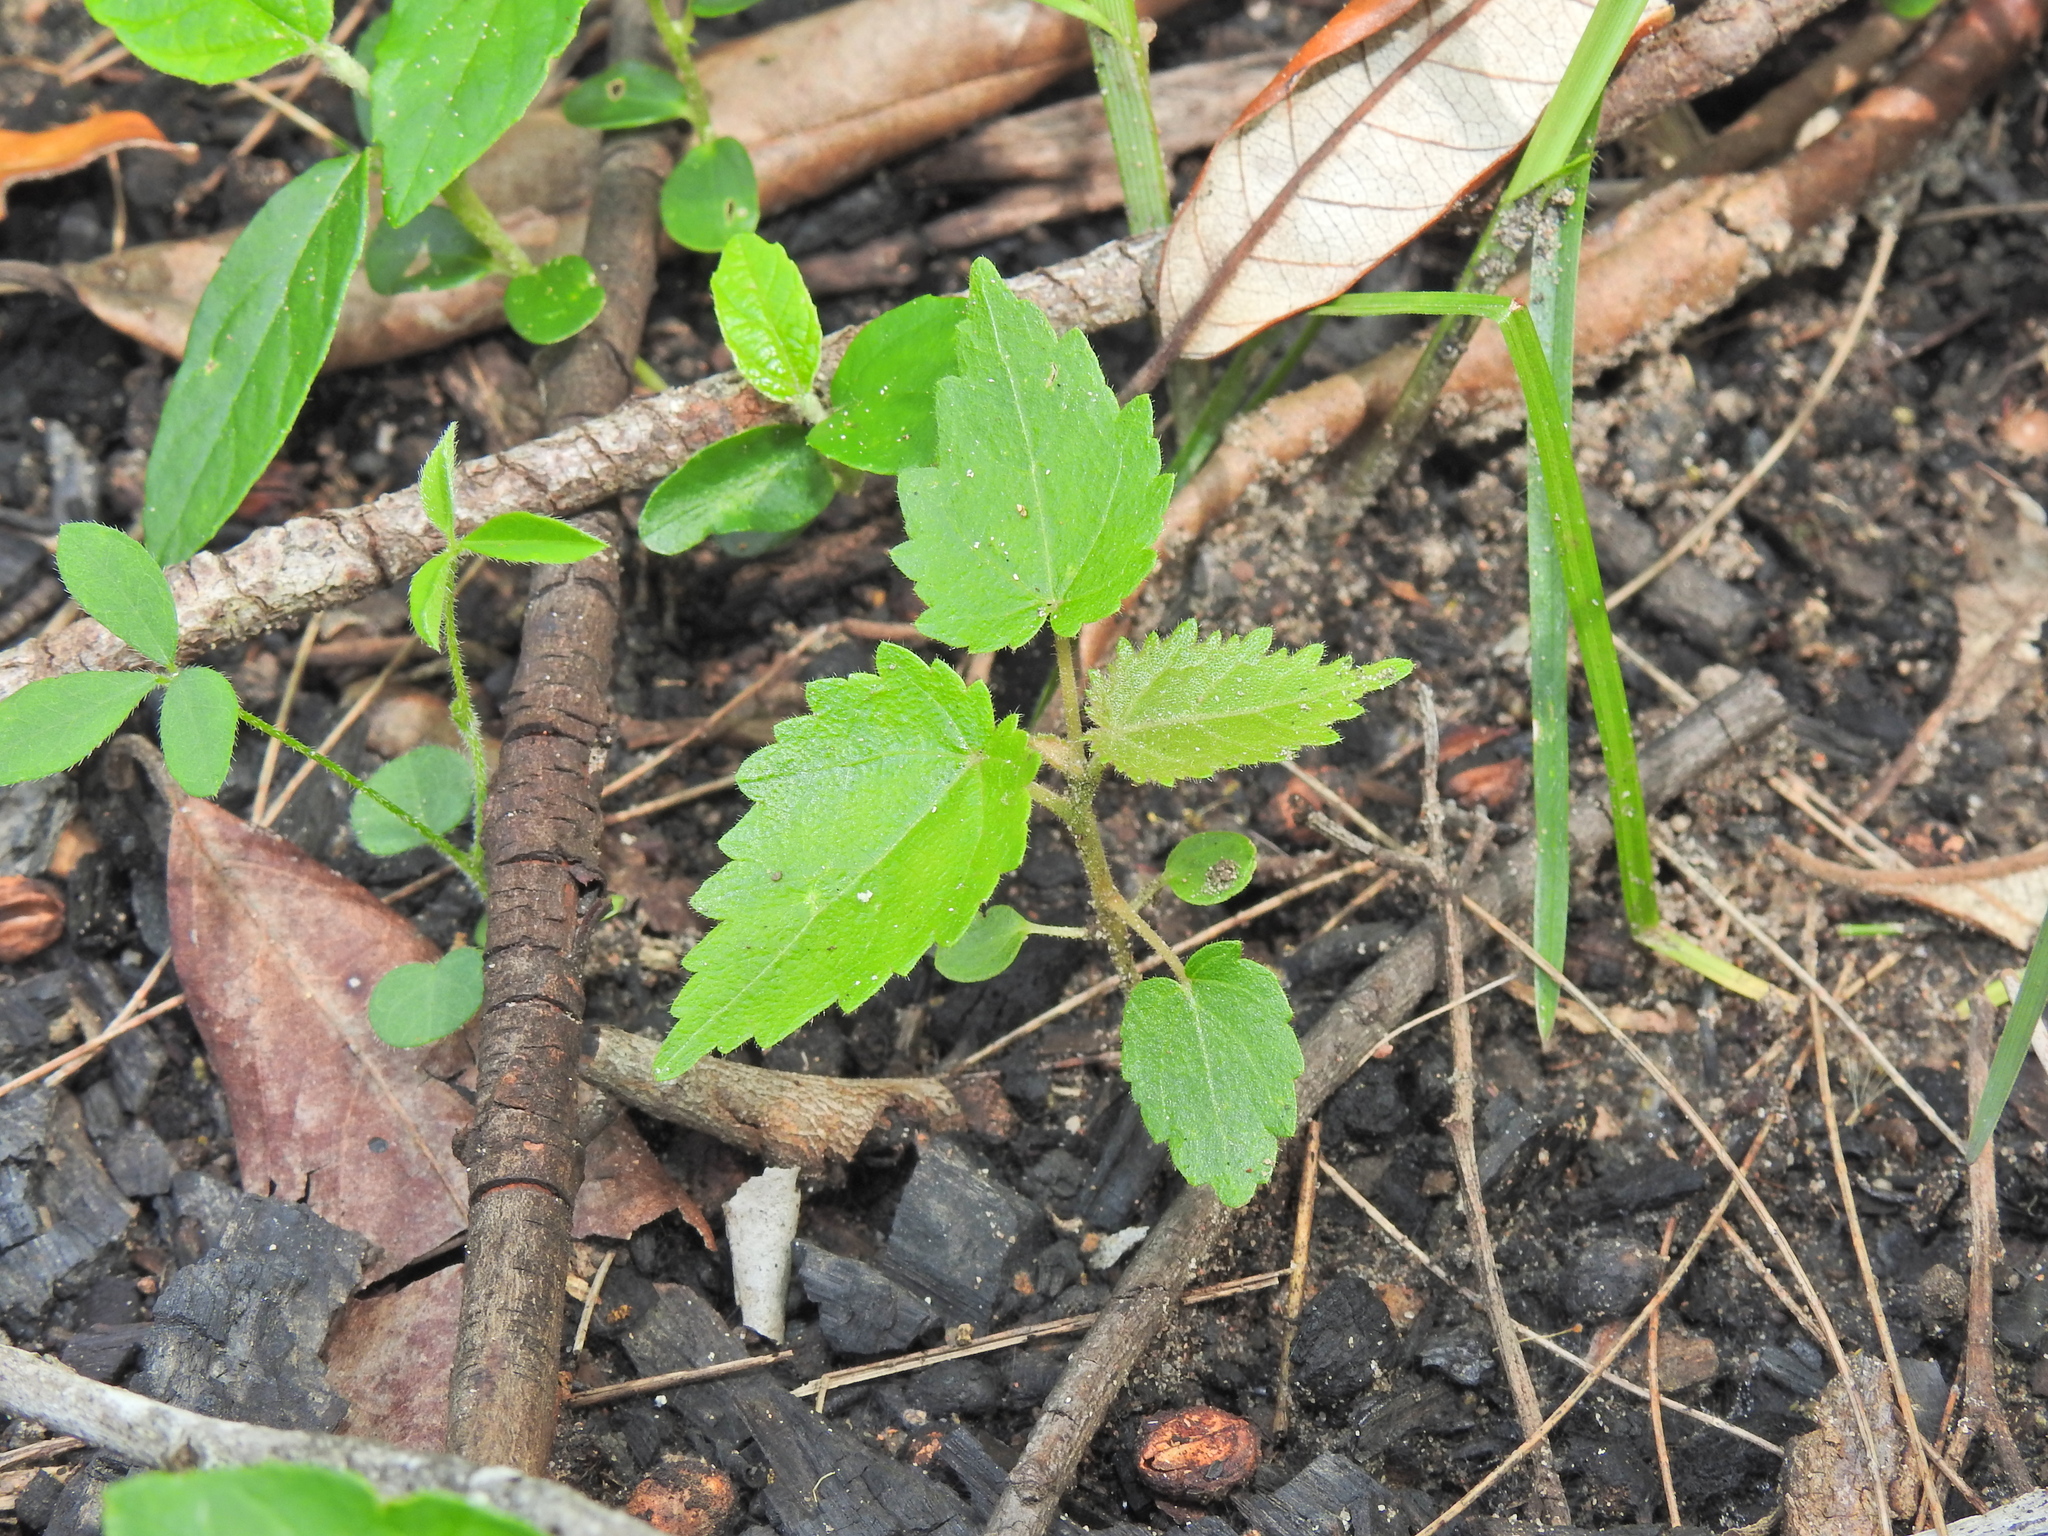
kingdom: Plantae
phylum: Tracheophyta
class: Magnoliopsida
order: Malvales
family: Malvaceae
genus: Commersonia
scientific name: Commersonia bartramia
